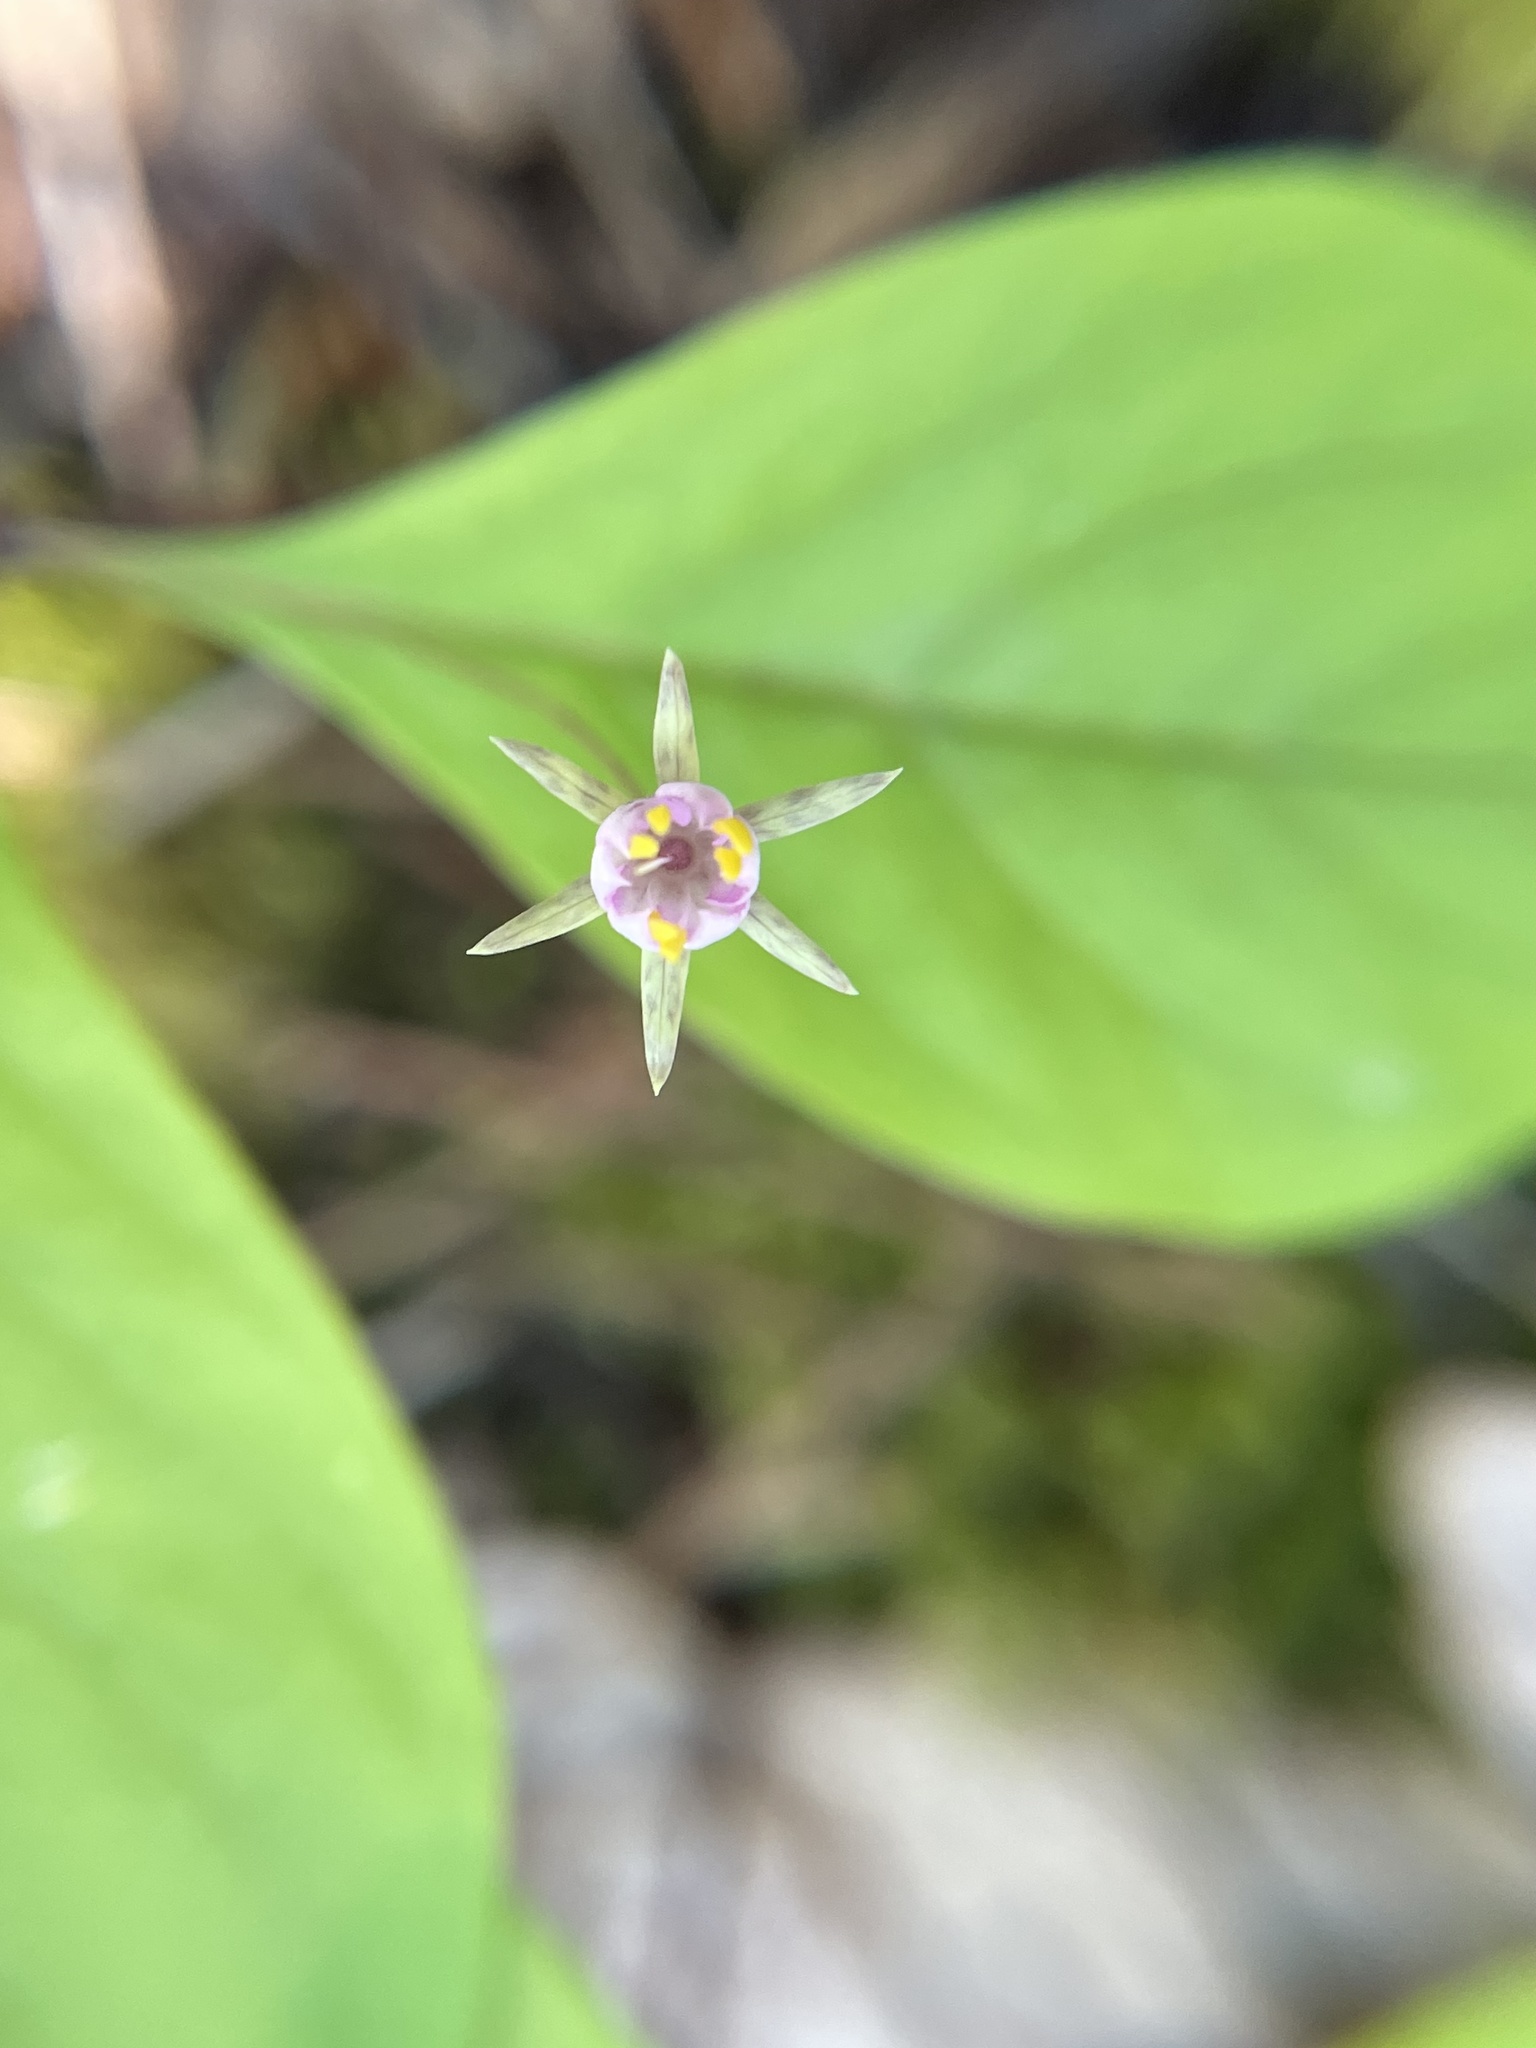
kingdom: Plantae
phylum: Tracheophyta
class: Magnoliopsida
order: Ericales
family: Primulaceae
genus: Lysimachia
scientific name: Lysimachia latifolia
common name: Pacific starflower
